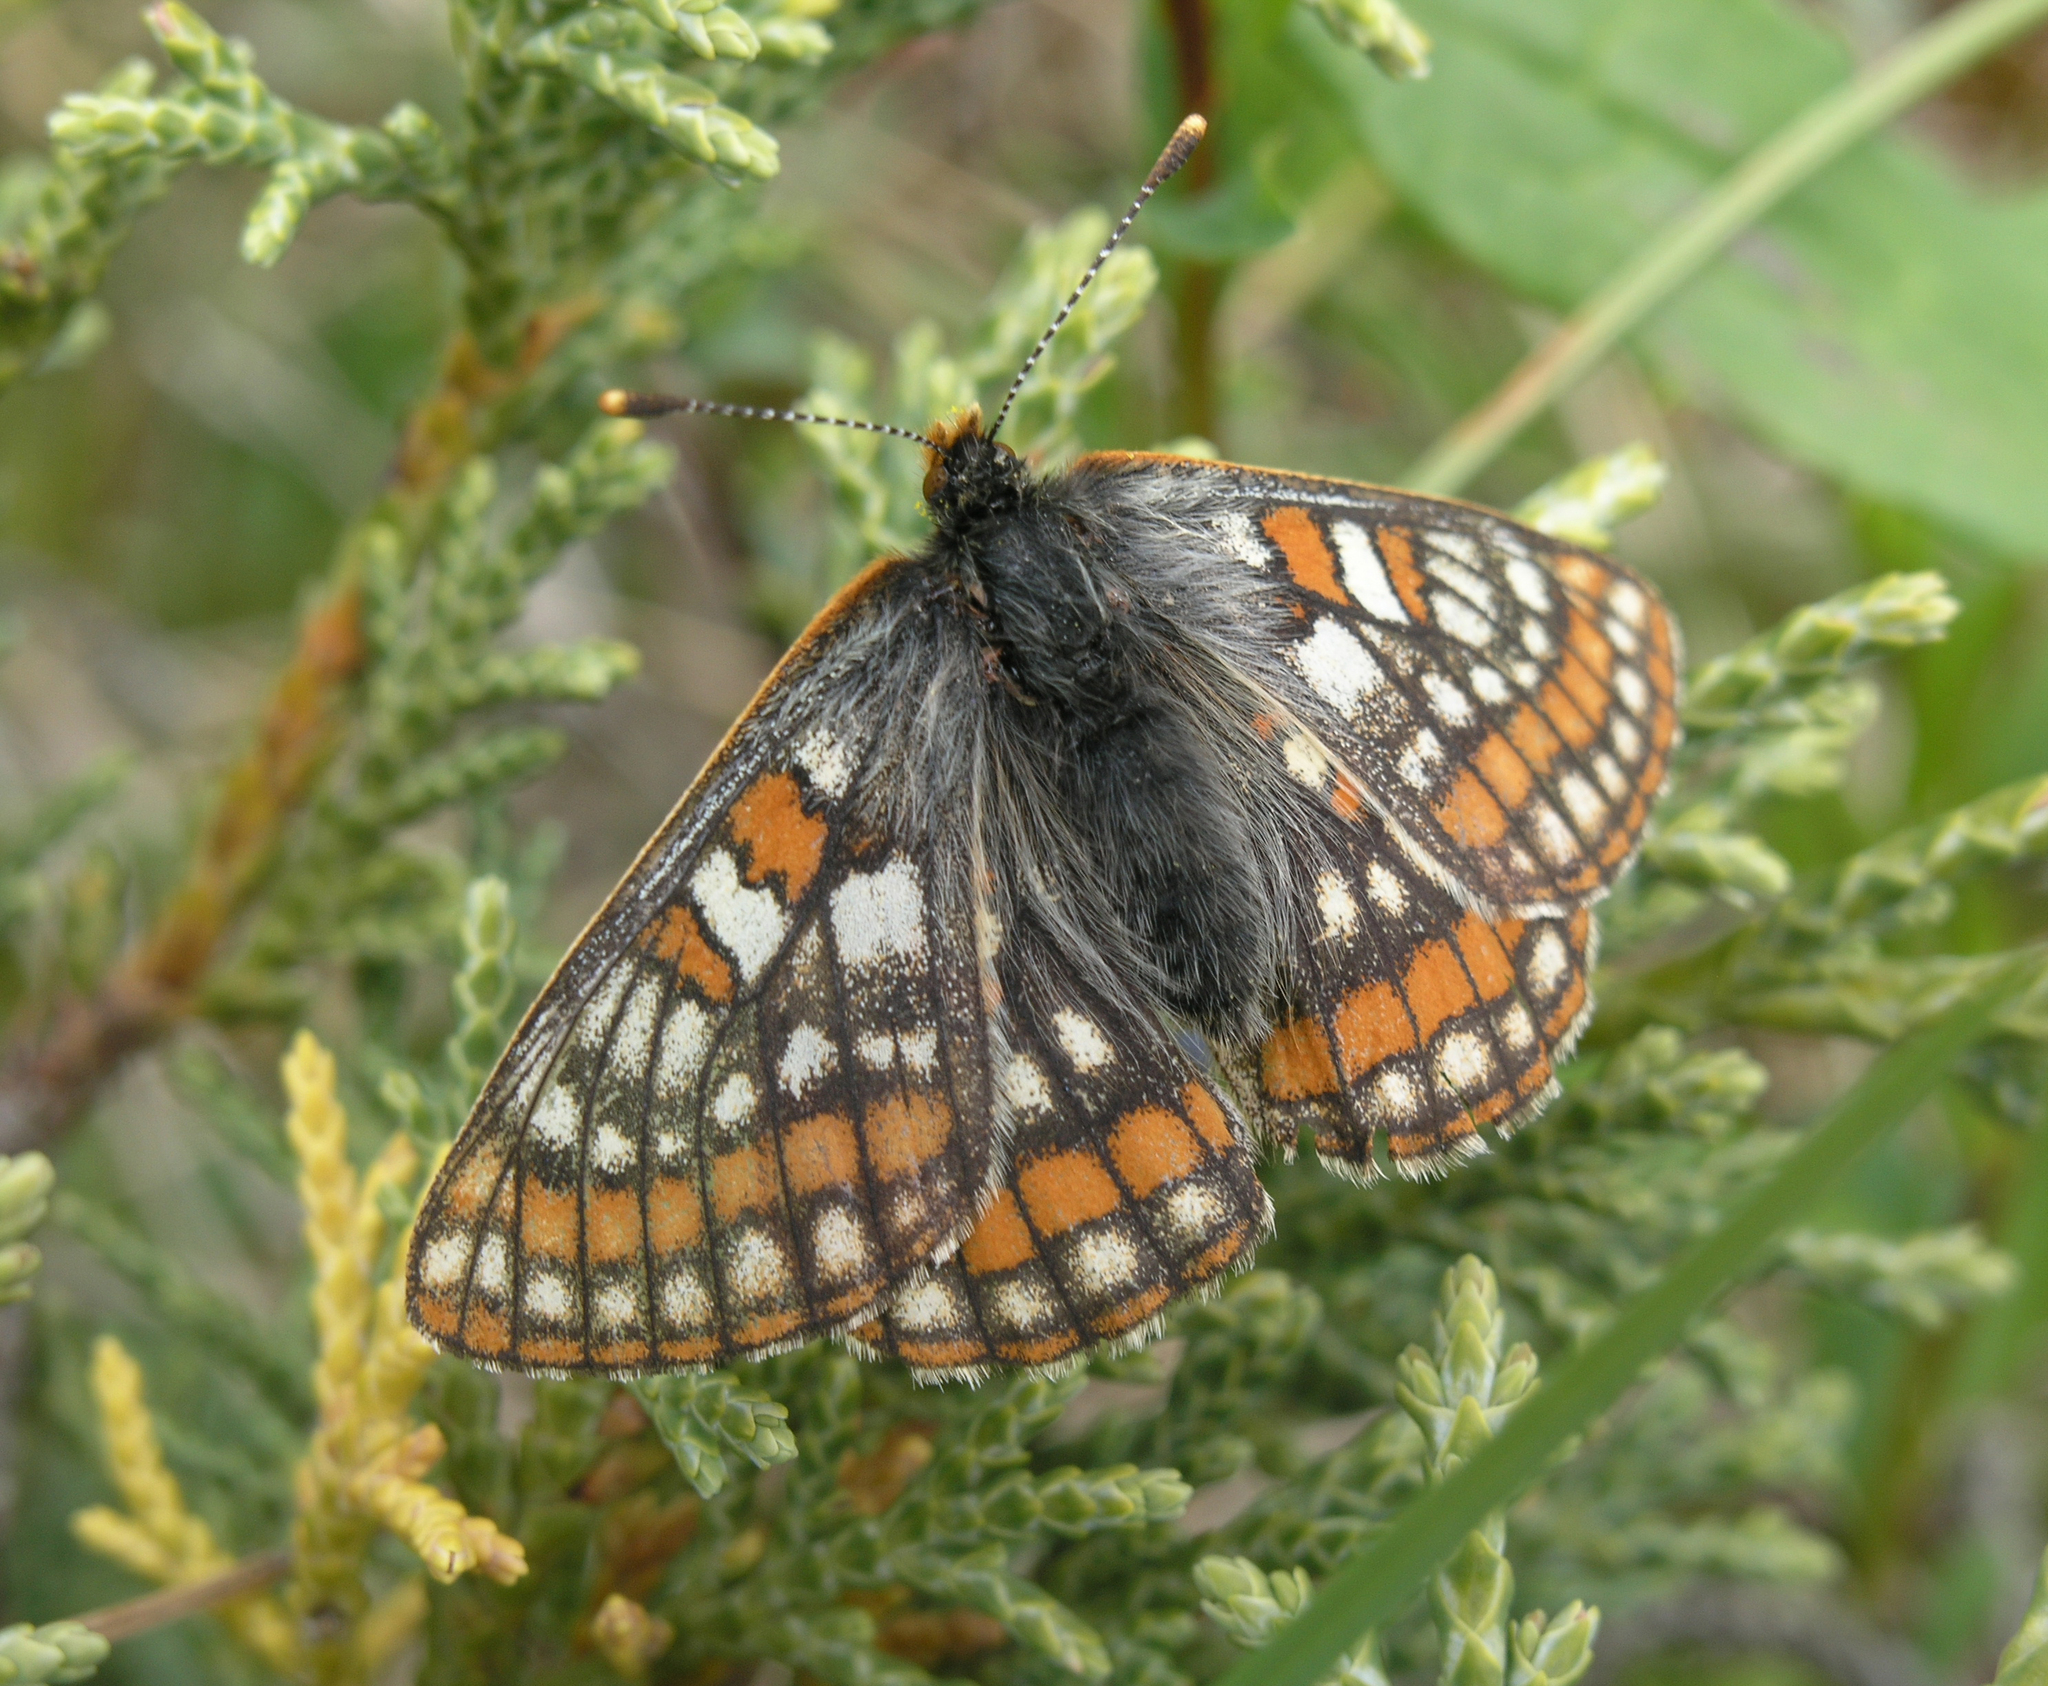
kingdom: Plantae
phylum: Tracheophyta
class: Pinopsida
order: Pinales
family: Cupressaceae
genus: Juniperus
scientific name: Juniperus pseudosabina
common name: Turkestan juniper
